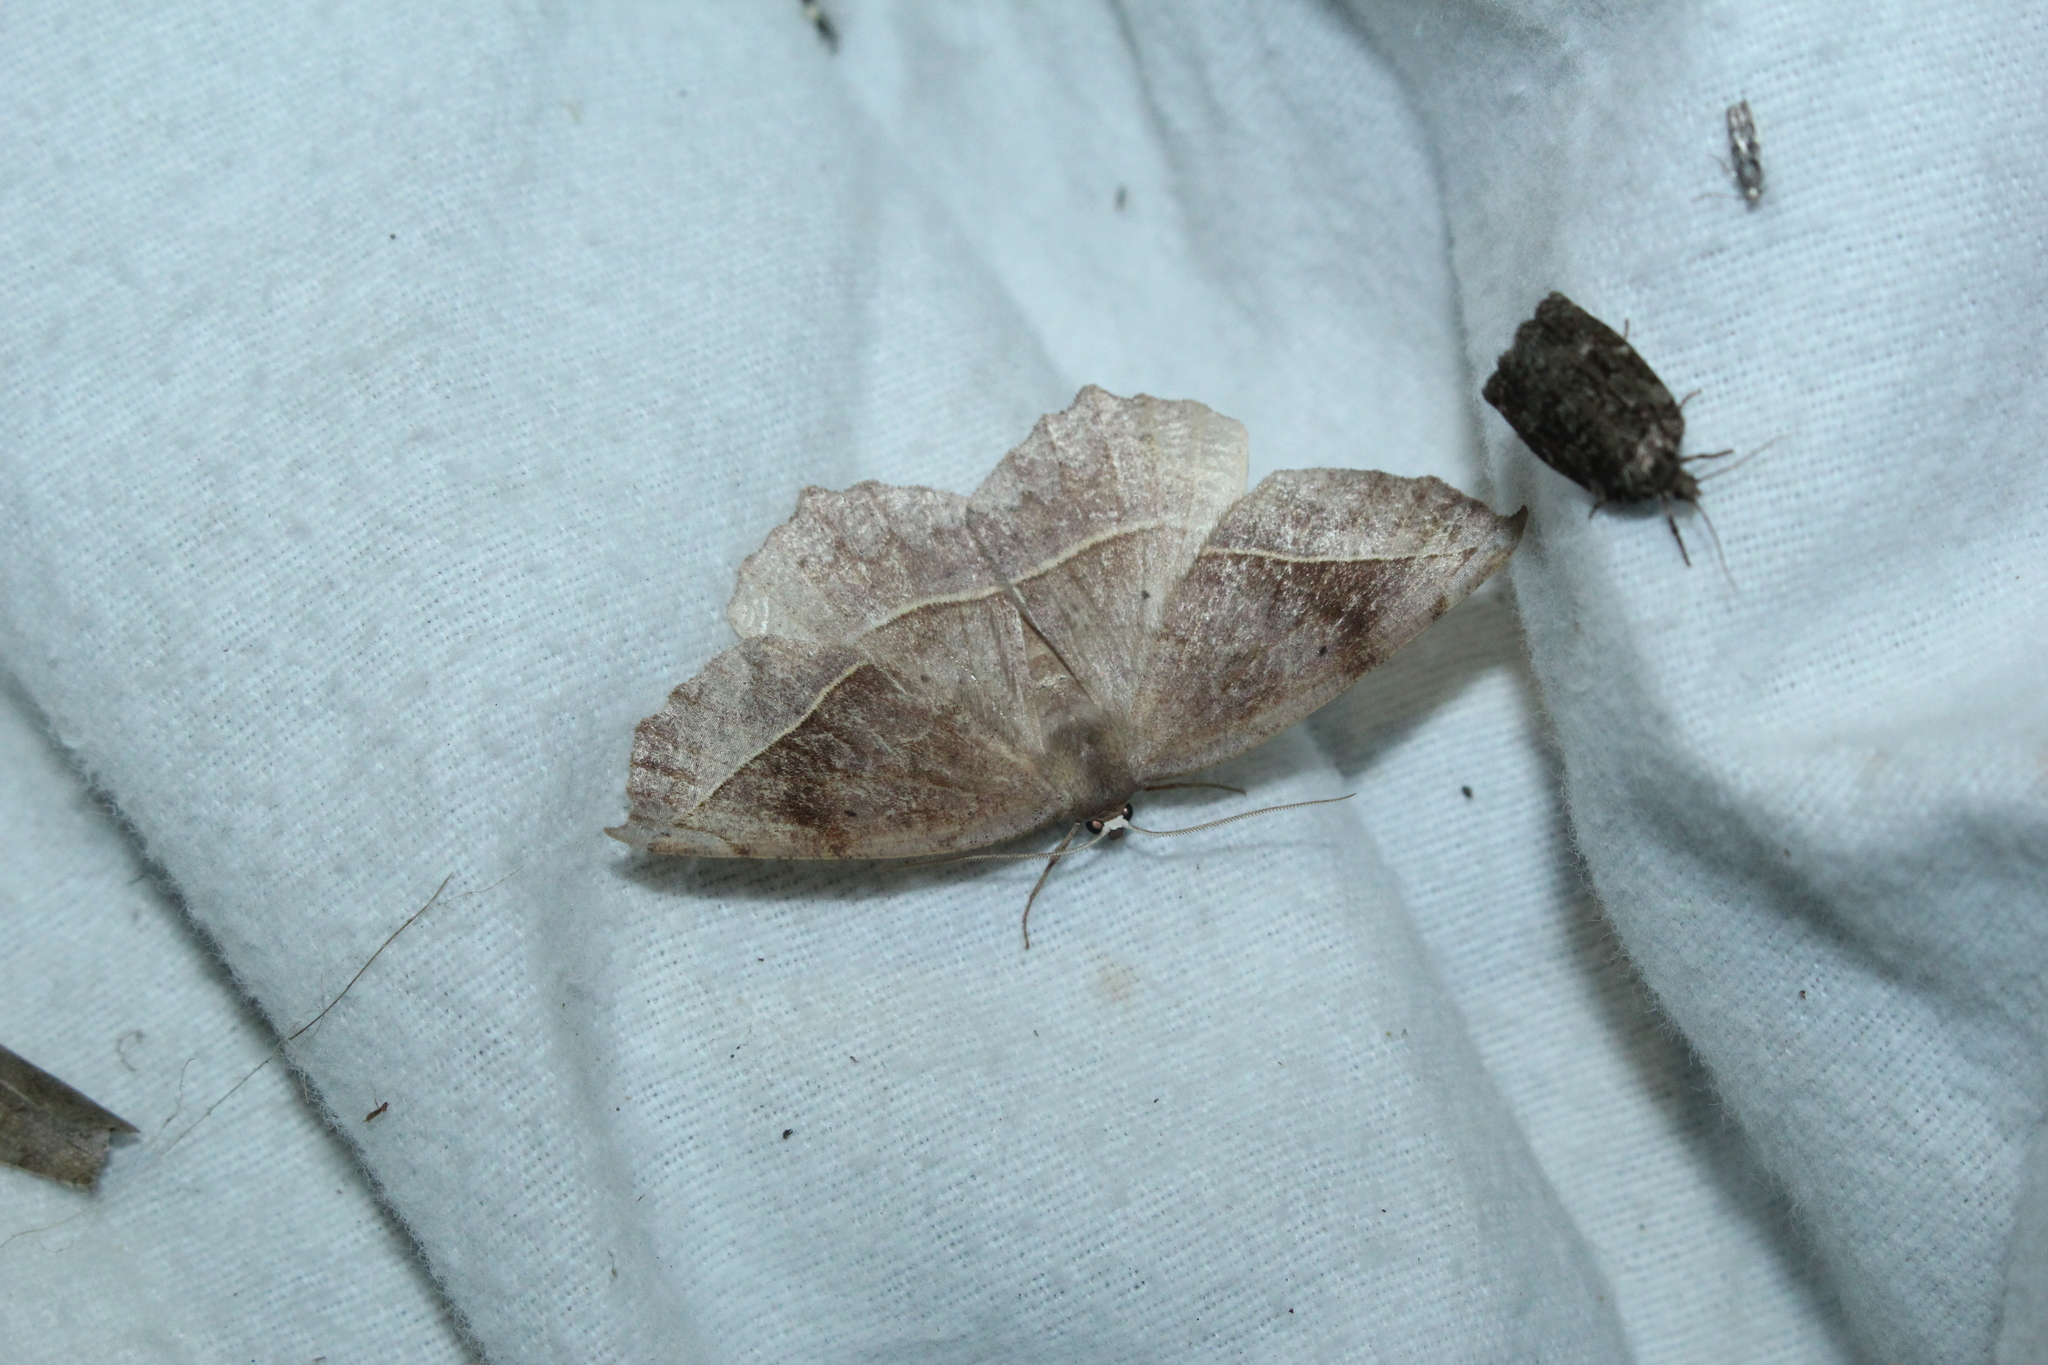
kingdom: Animalia
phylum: Arthropoda
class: Insecta
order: Lepidoptera
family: Geometridae
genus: Eutrapela
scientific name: Eutrapela clemataria
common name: Curved-toothed geometer
